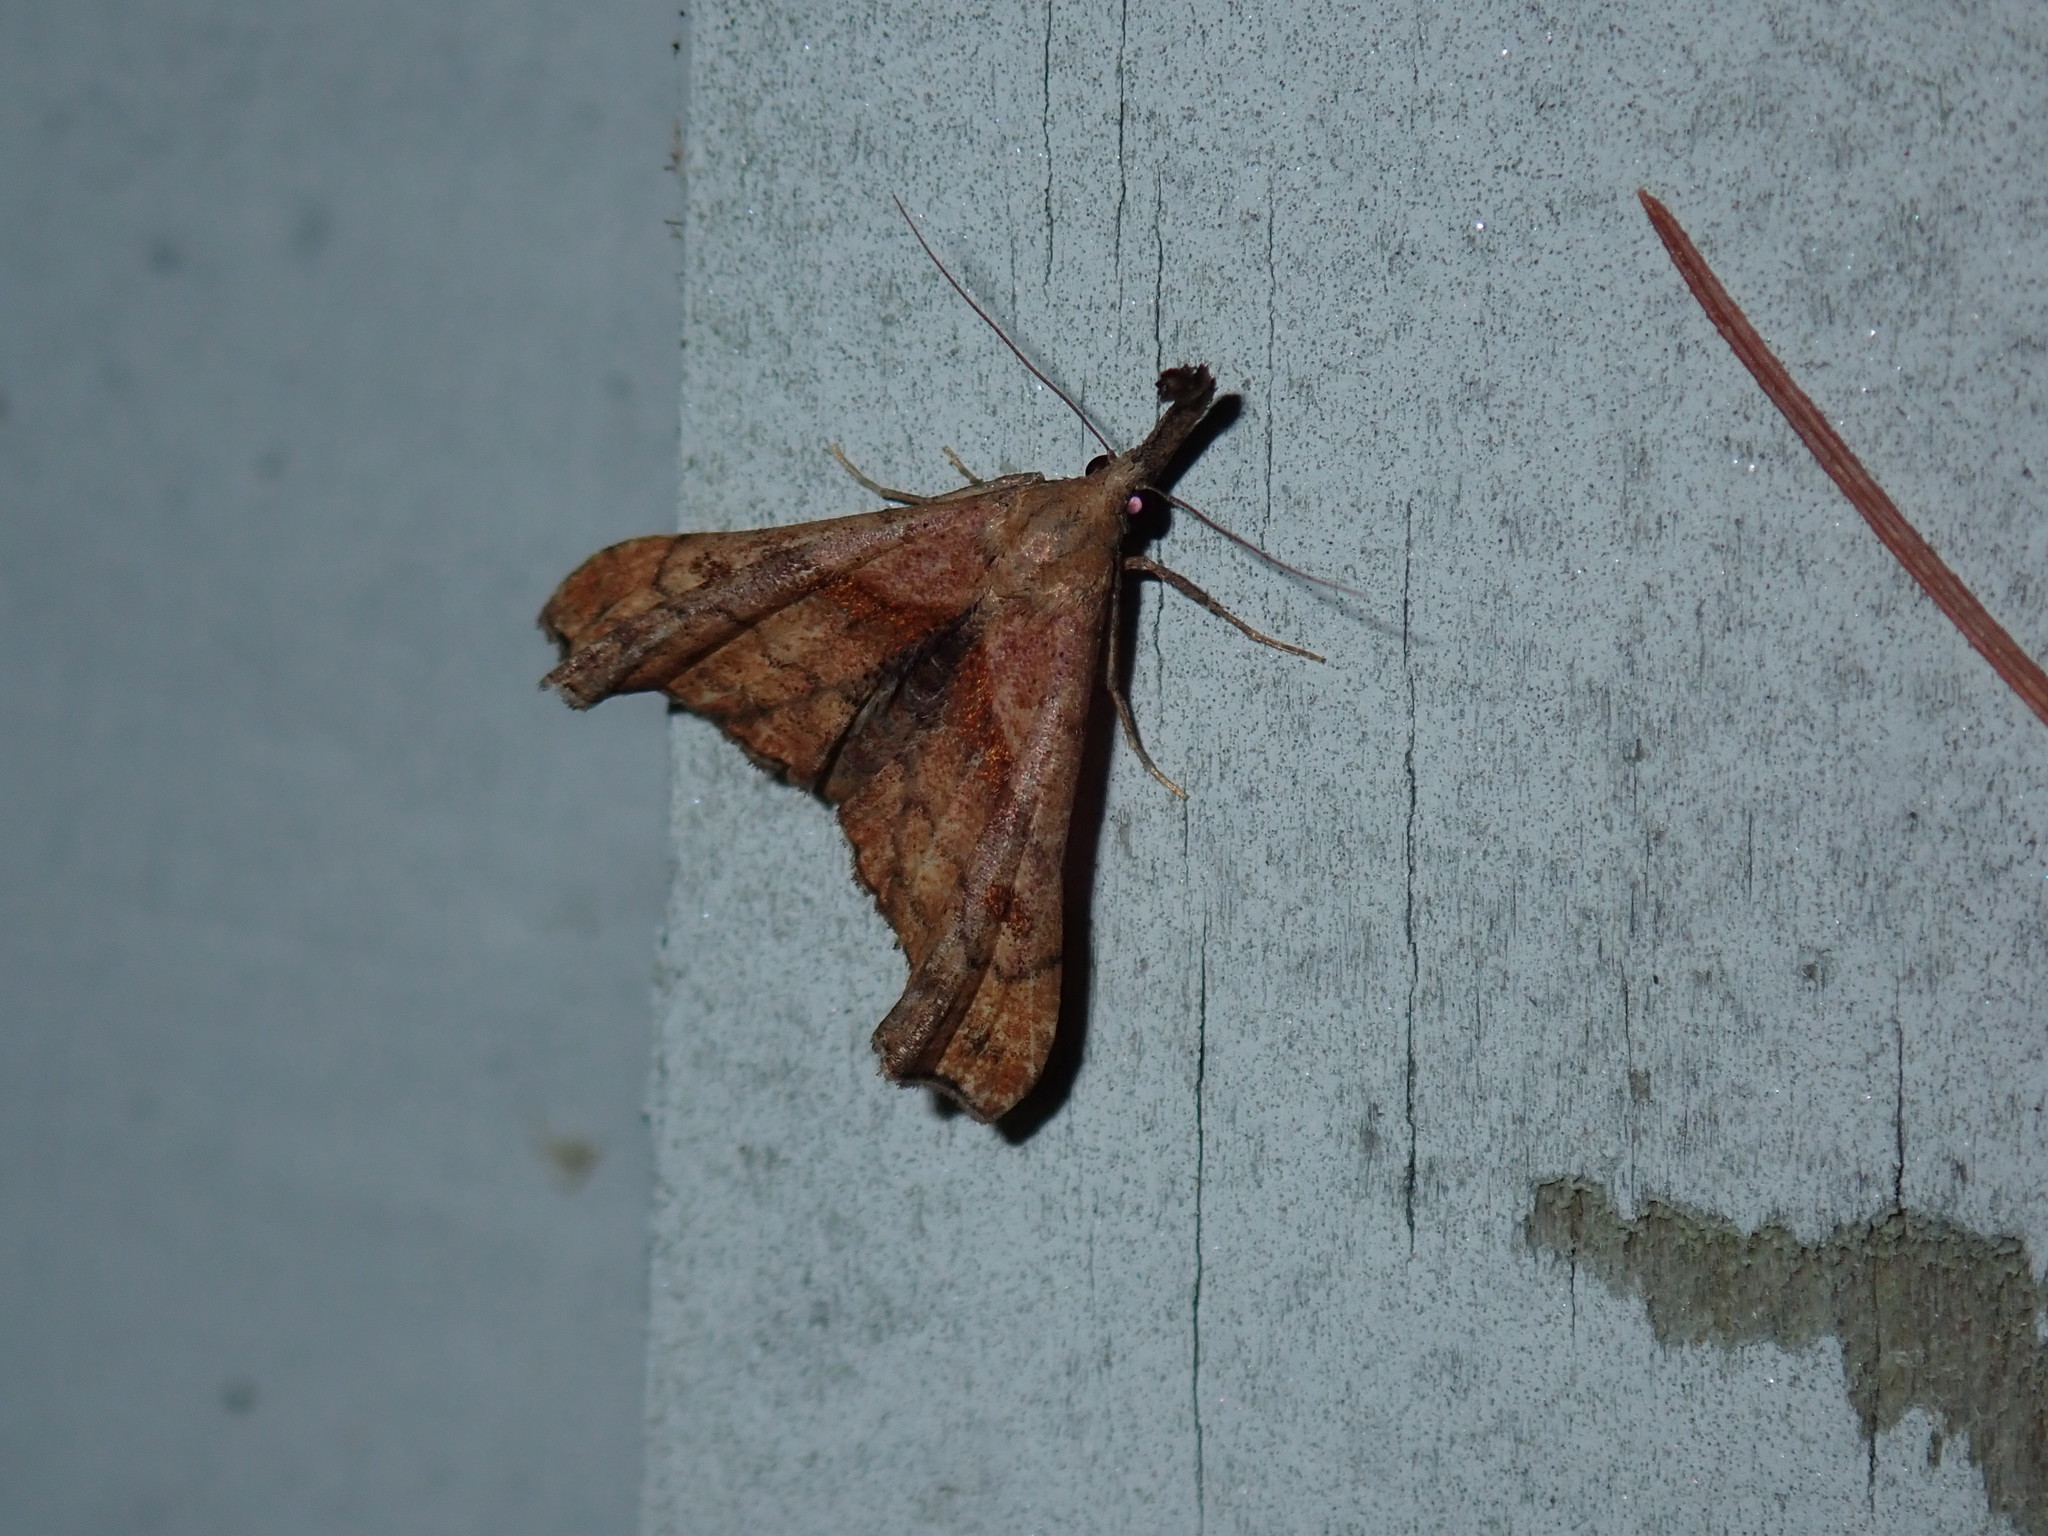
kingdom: Animalia
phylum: Arthropoda
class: Insecta
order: Lepidoptera
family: Erebidae
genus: Palthis
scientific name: Palthis angulalis
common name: Dark-spotted palthis moth
